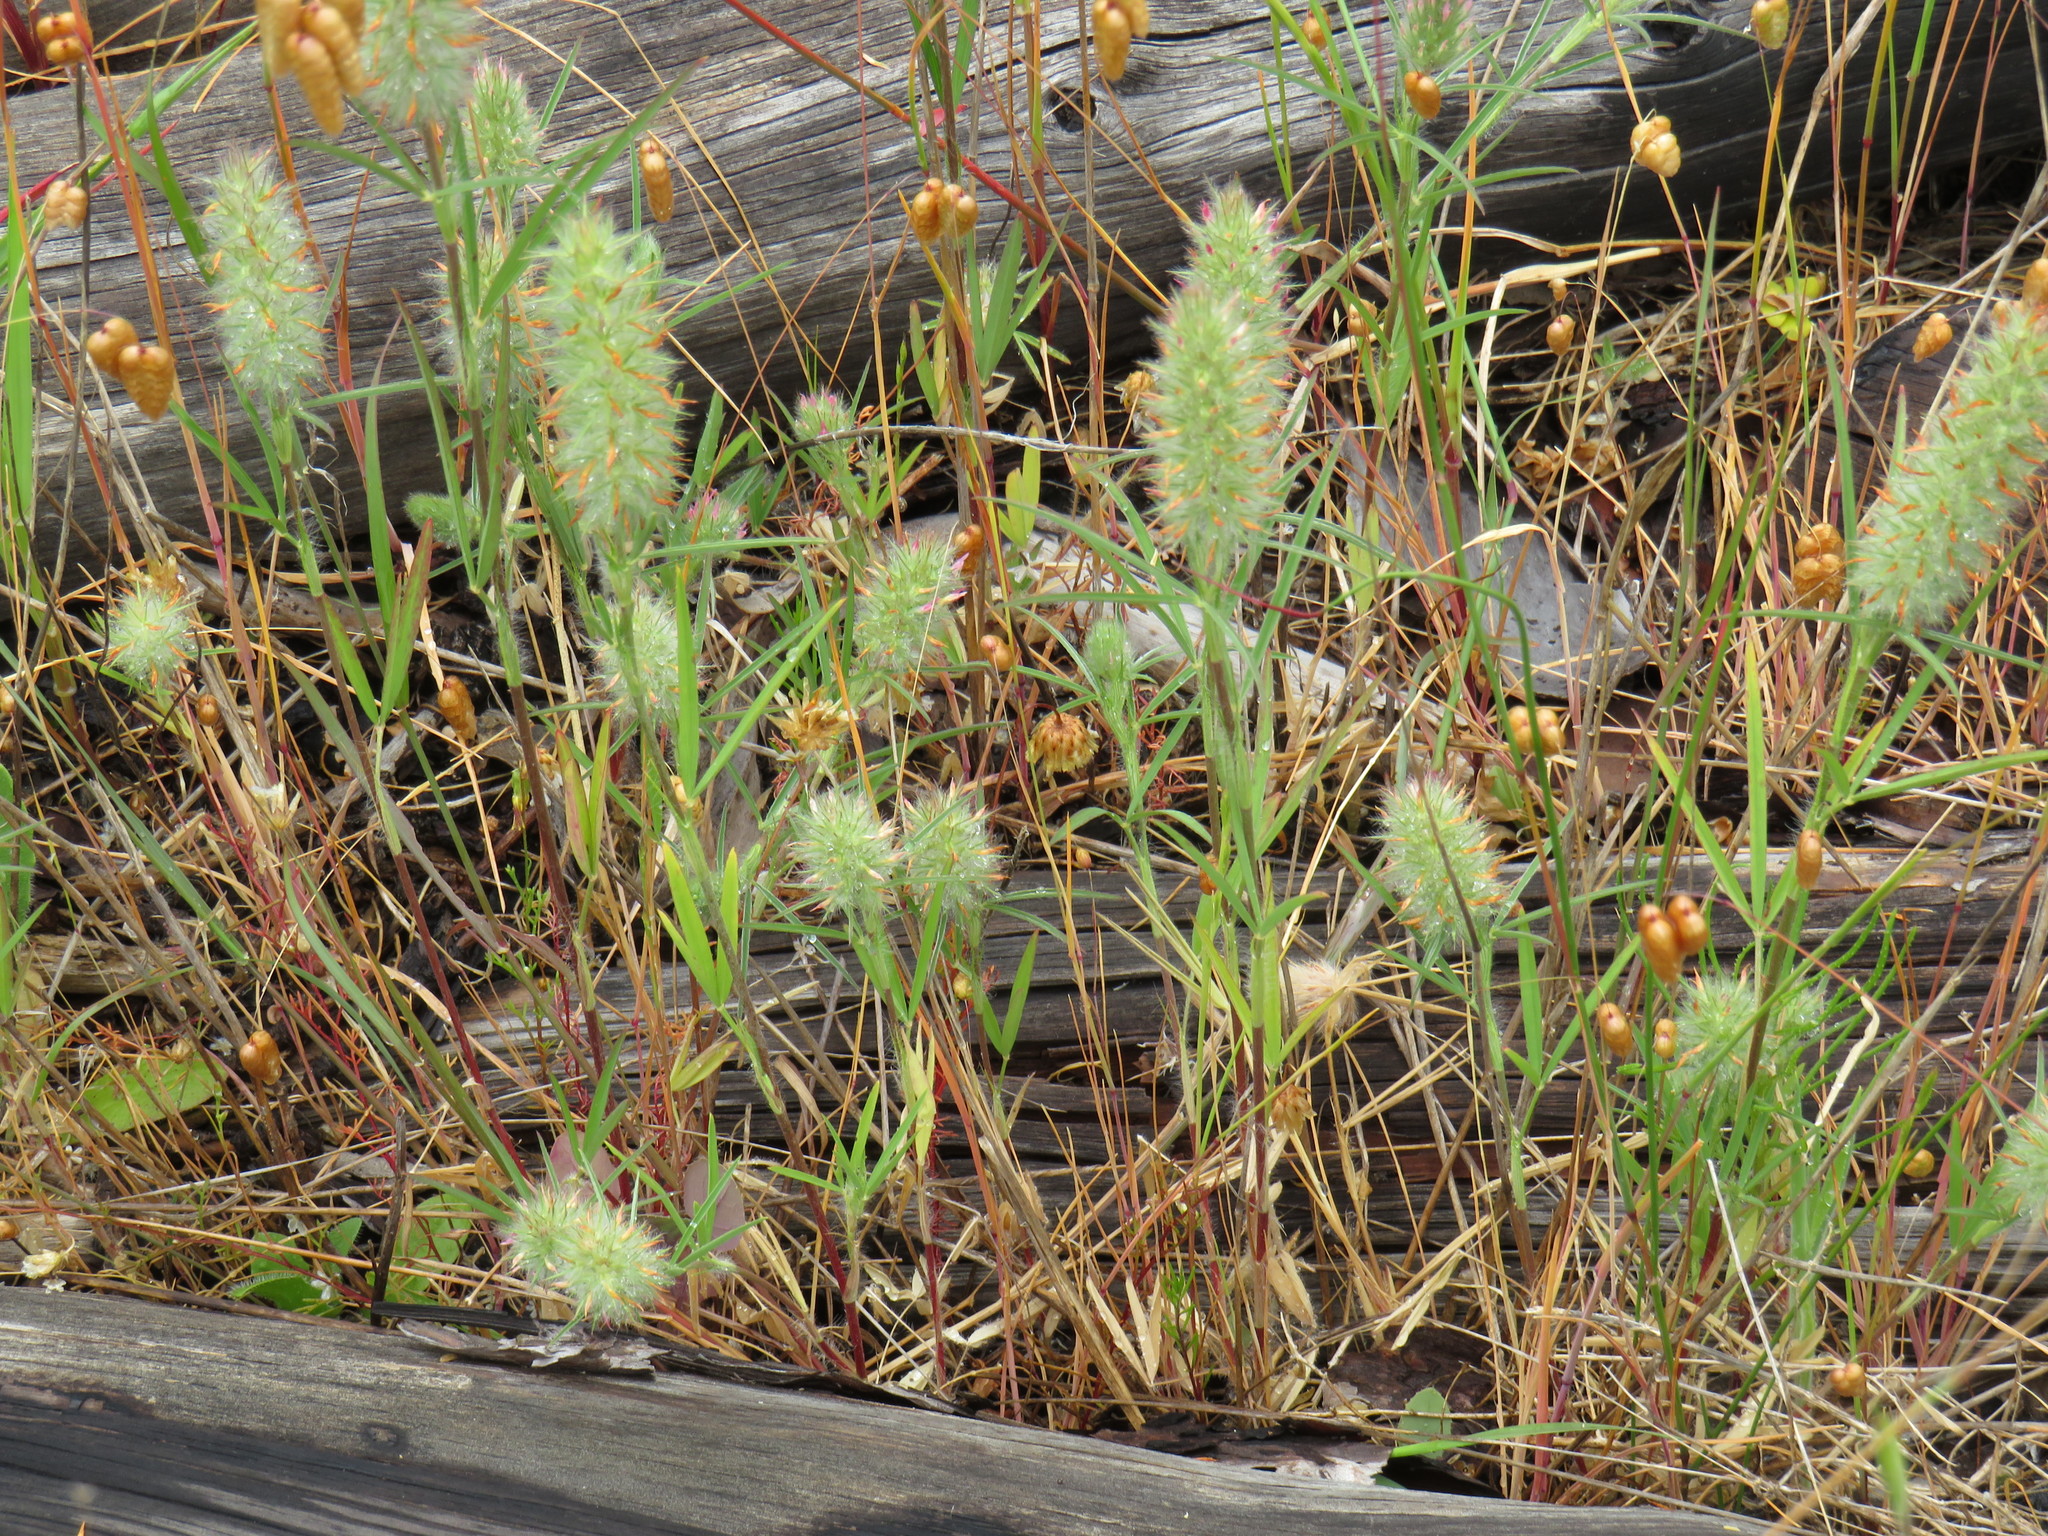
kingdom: Plantae
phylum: Tracheophyta
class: Magnoliopsida
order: Fabales
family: Fabaceae
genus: Trifolium
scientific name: Trifolium angustifolium
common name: Narrow clover
